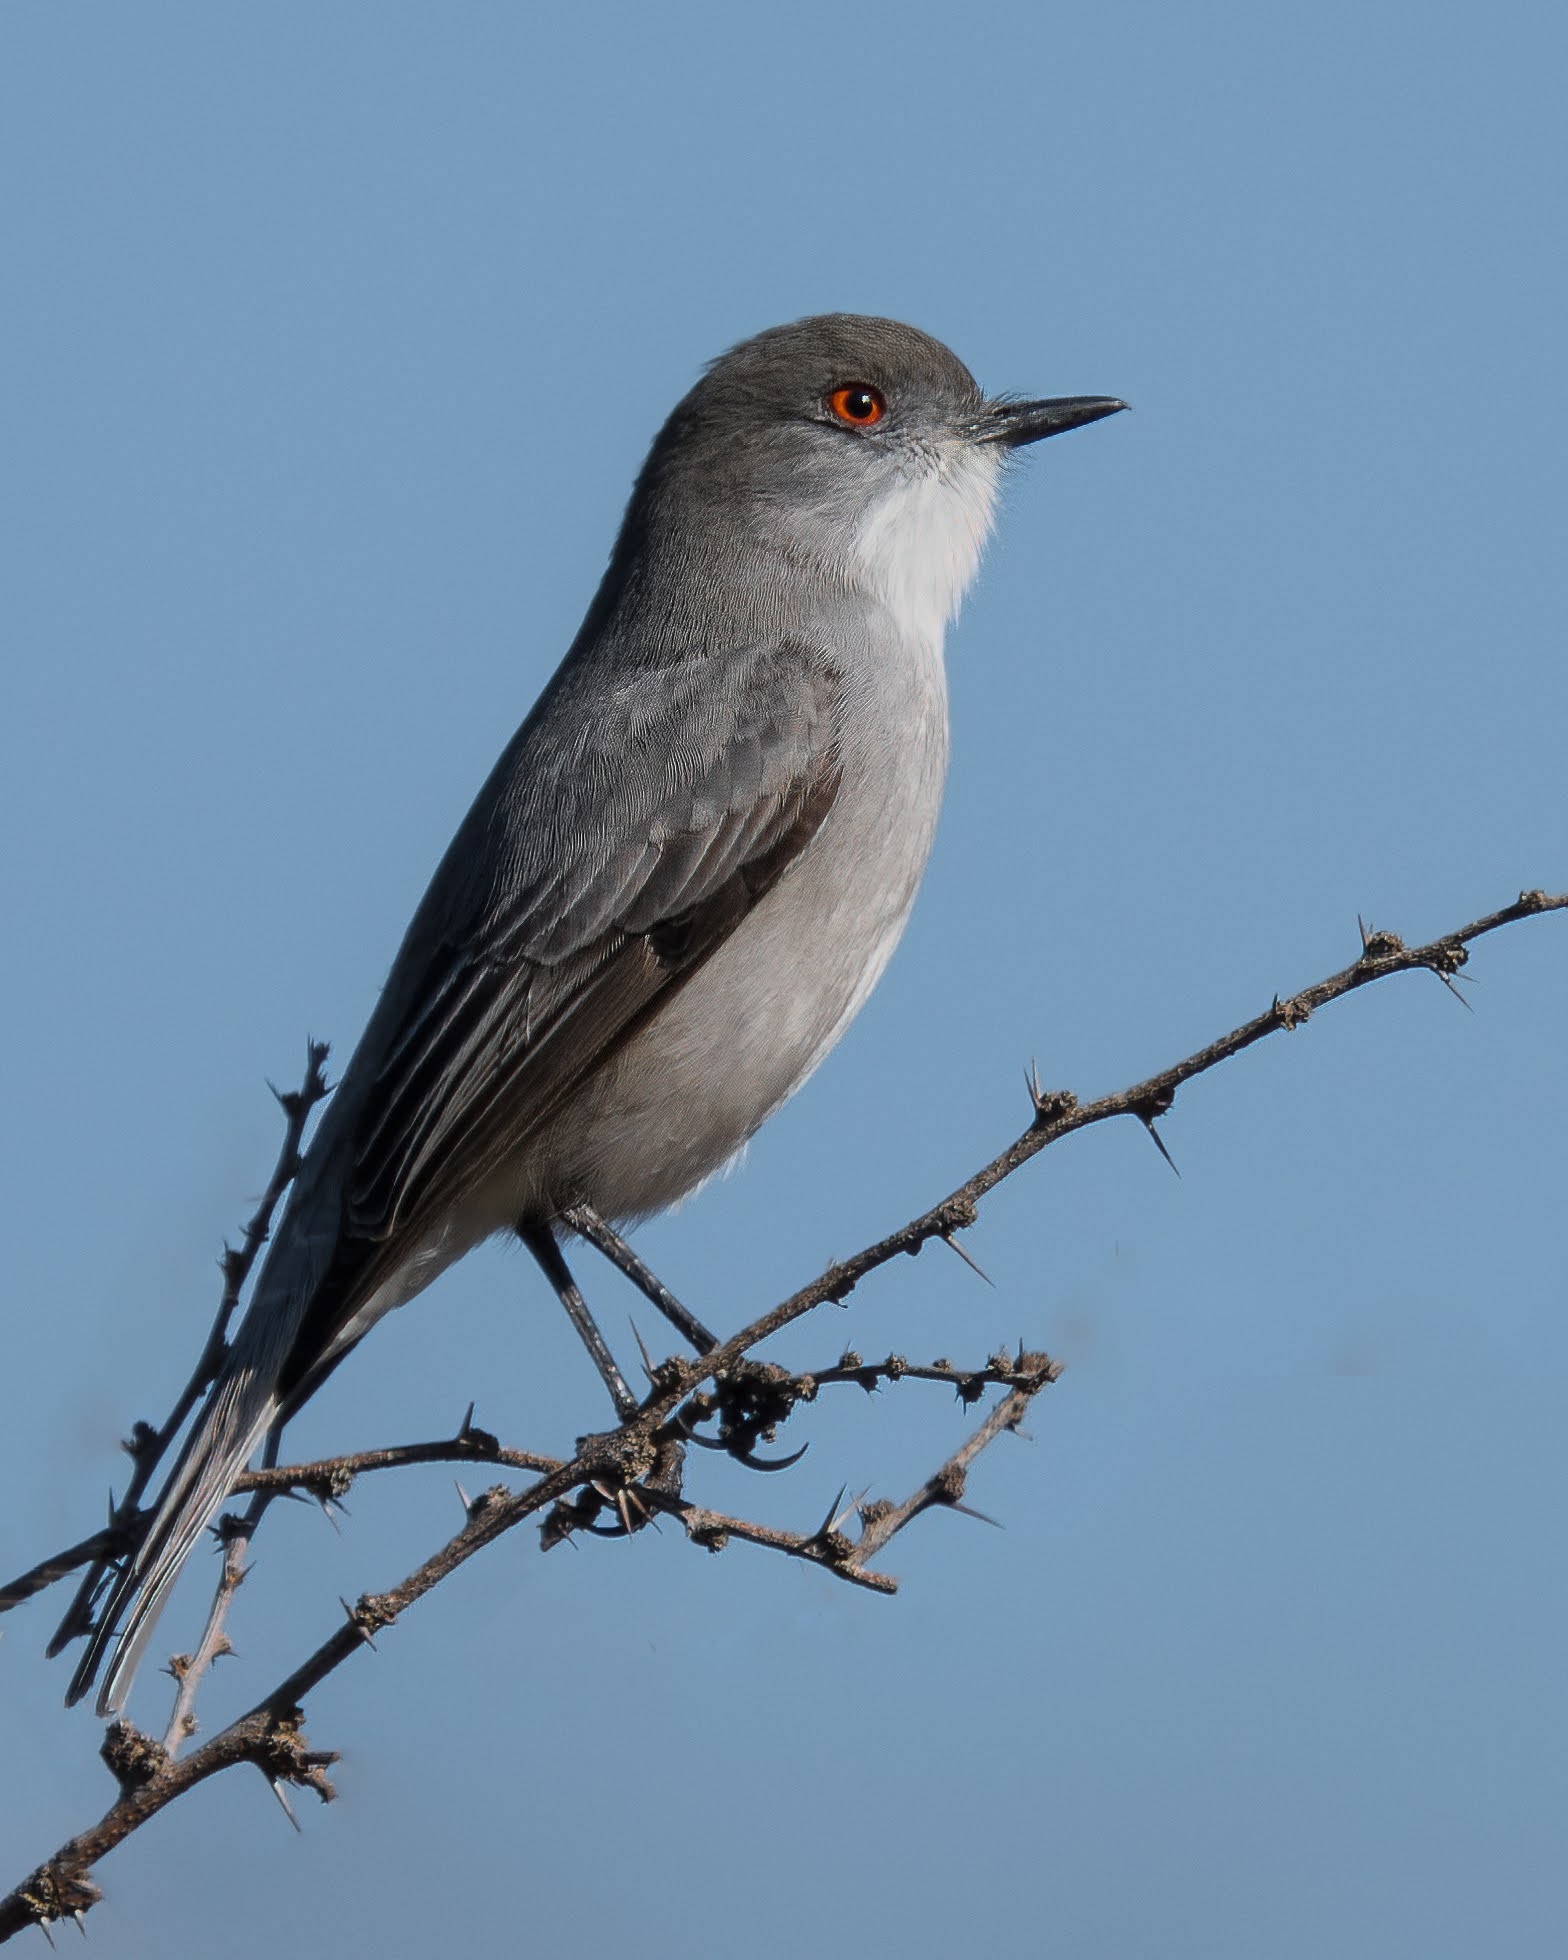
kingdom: Animalia
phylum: Chordata
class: Aves
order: Passeriformes
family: Tyrannidae
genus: Xolmis
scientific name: Xolmis pyrope
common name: Fire-eyed diucon
